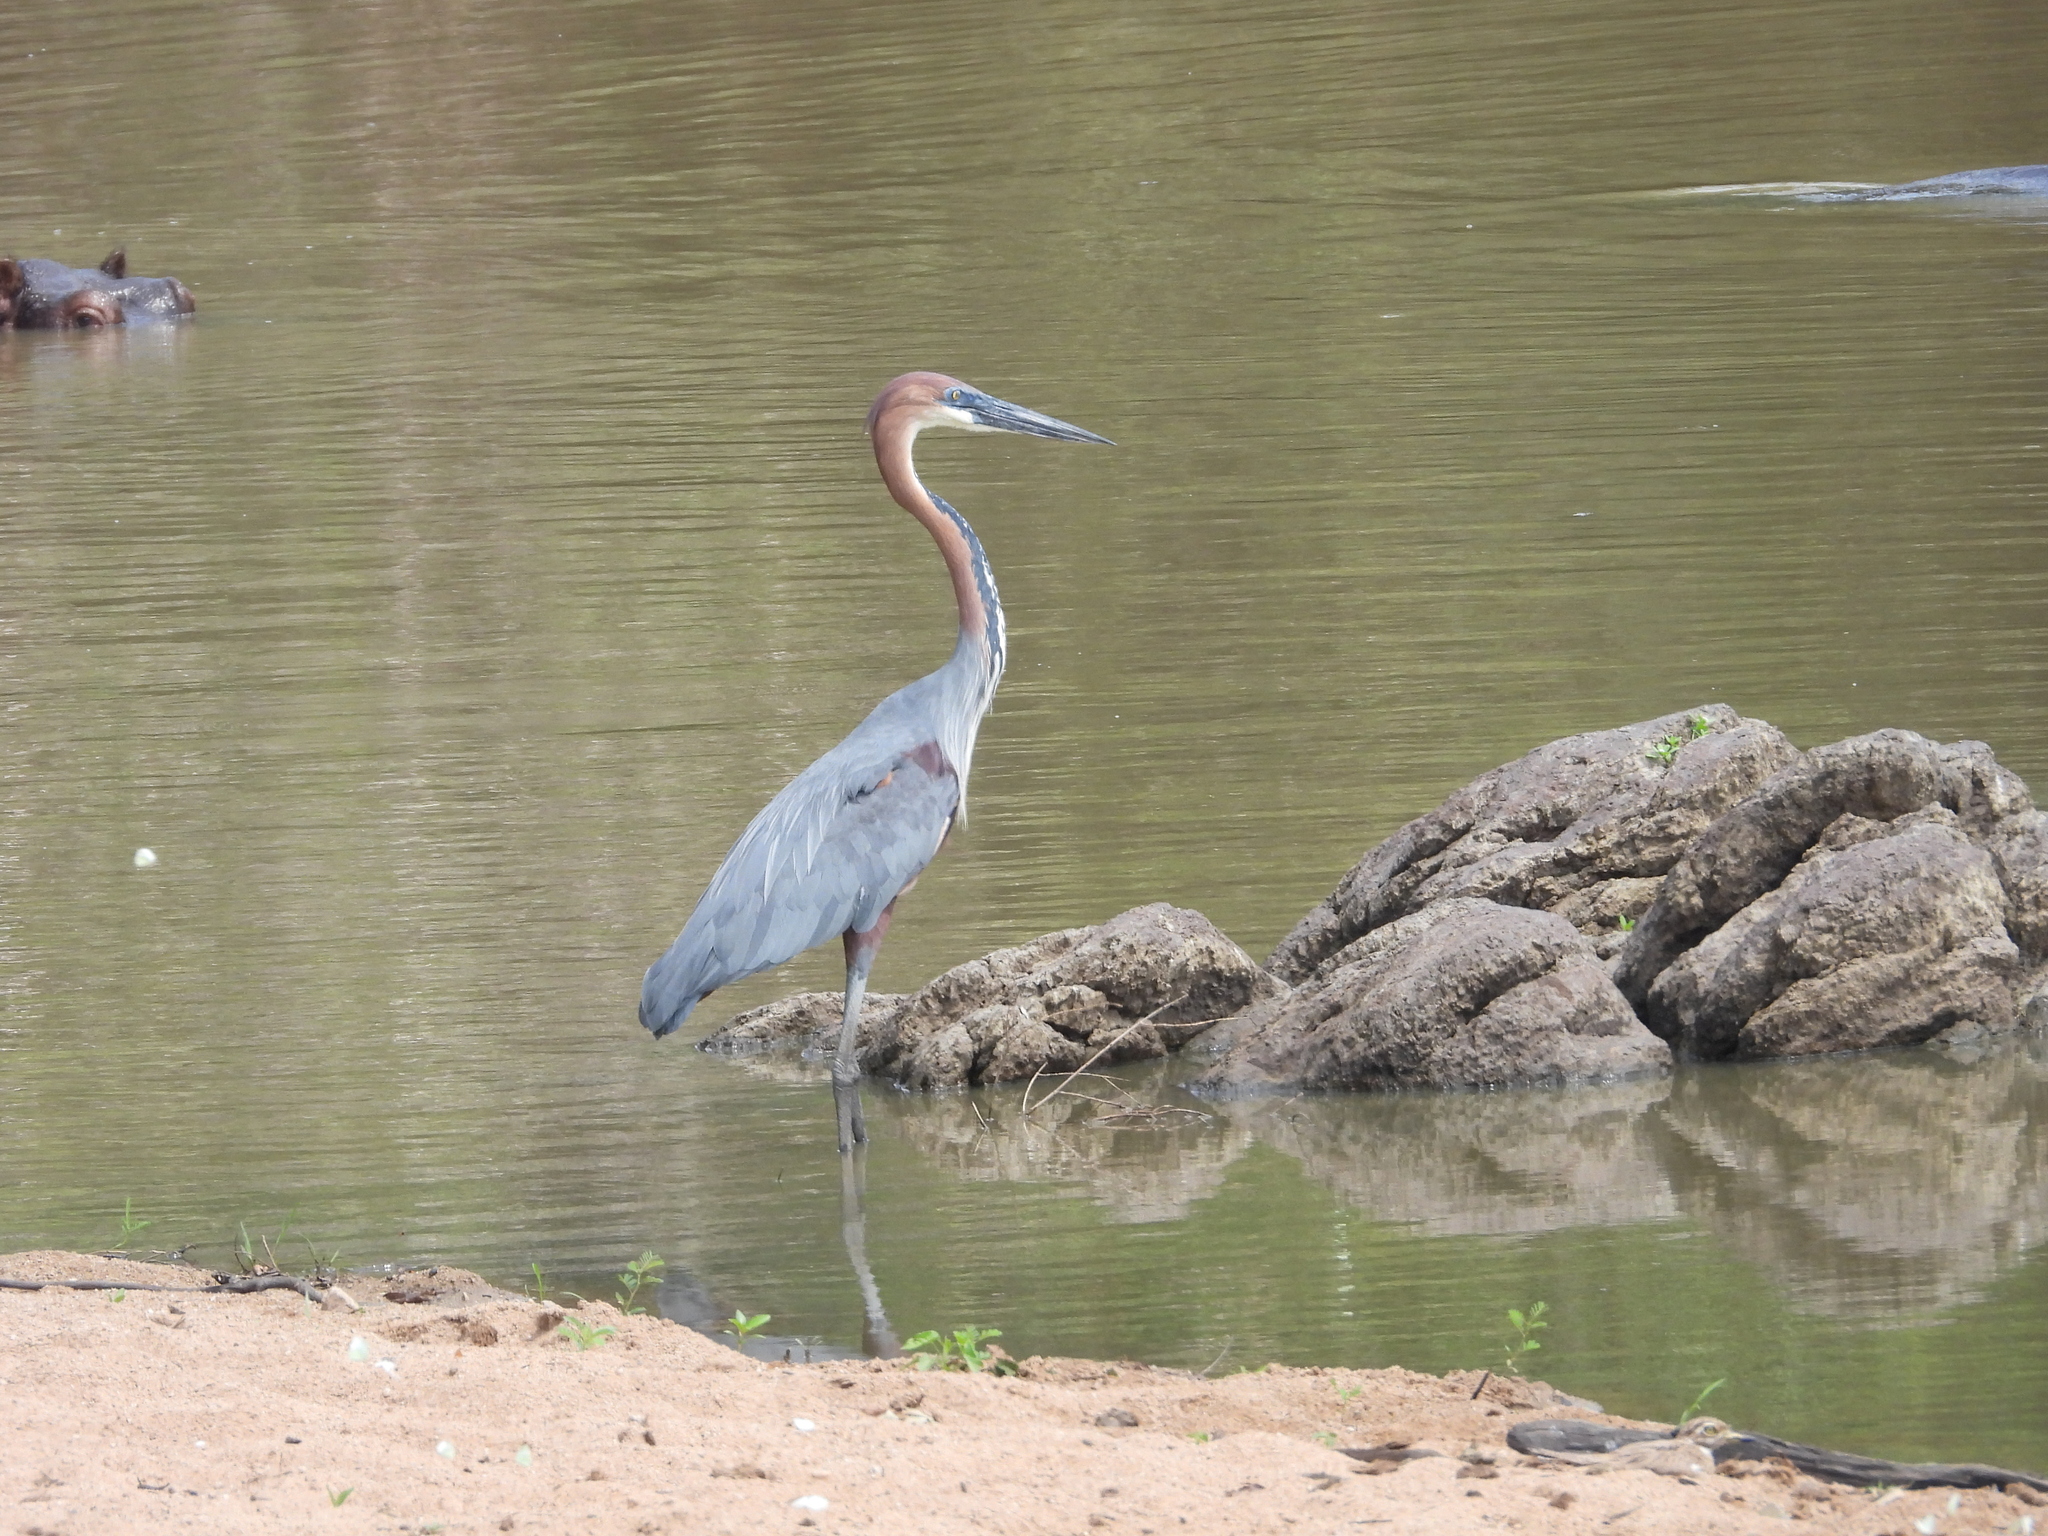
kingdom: Animalia
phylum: Chordata
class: Aves
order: Pelecaniformes
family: Ardeidae
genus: Ardea
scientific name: Ardea goliath
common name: Goliath heron
